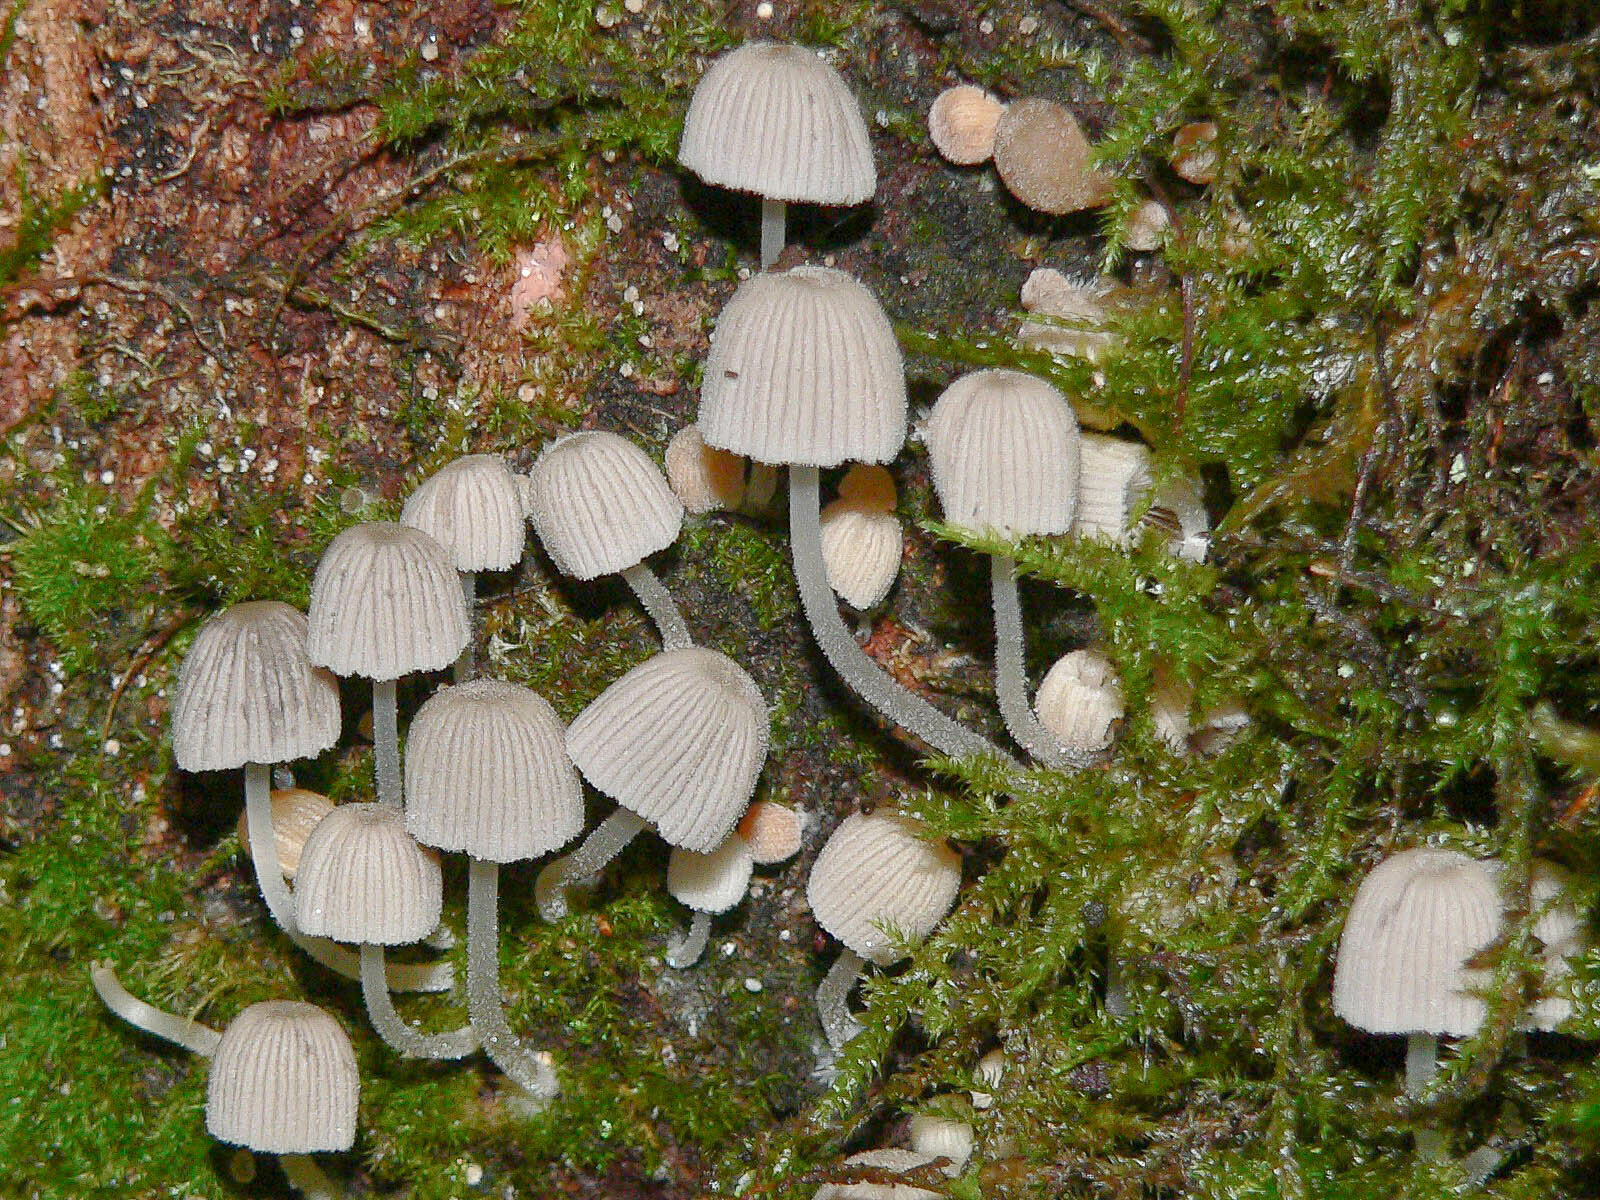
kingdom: Fungi
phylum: Basidiomycota
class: Agaricomycetes
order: Agaricales
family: Psathyrellaceae
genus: Coprinellus
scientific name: Coprinellus disseminatus
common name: Fairies' bonnets
